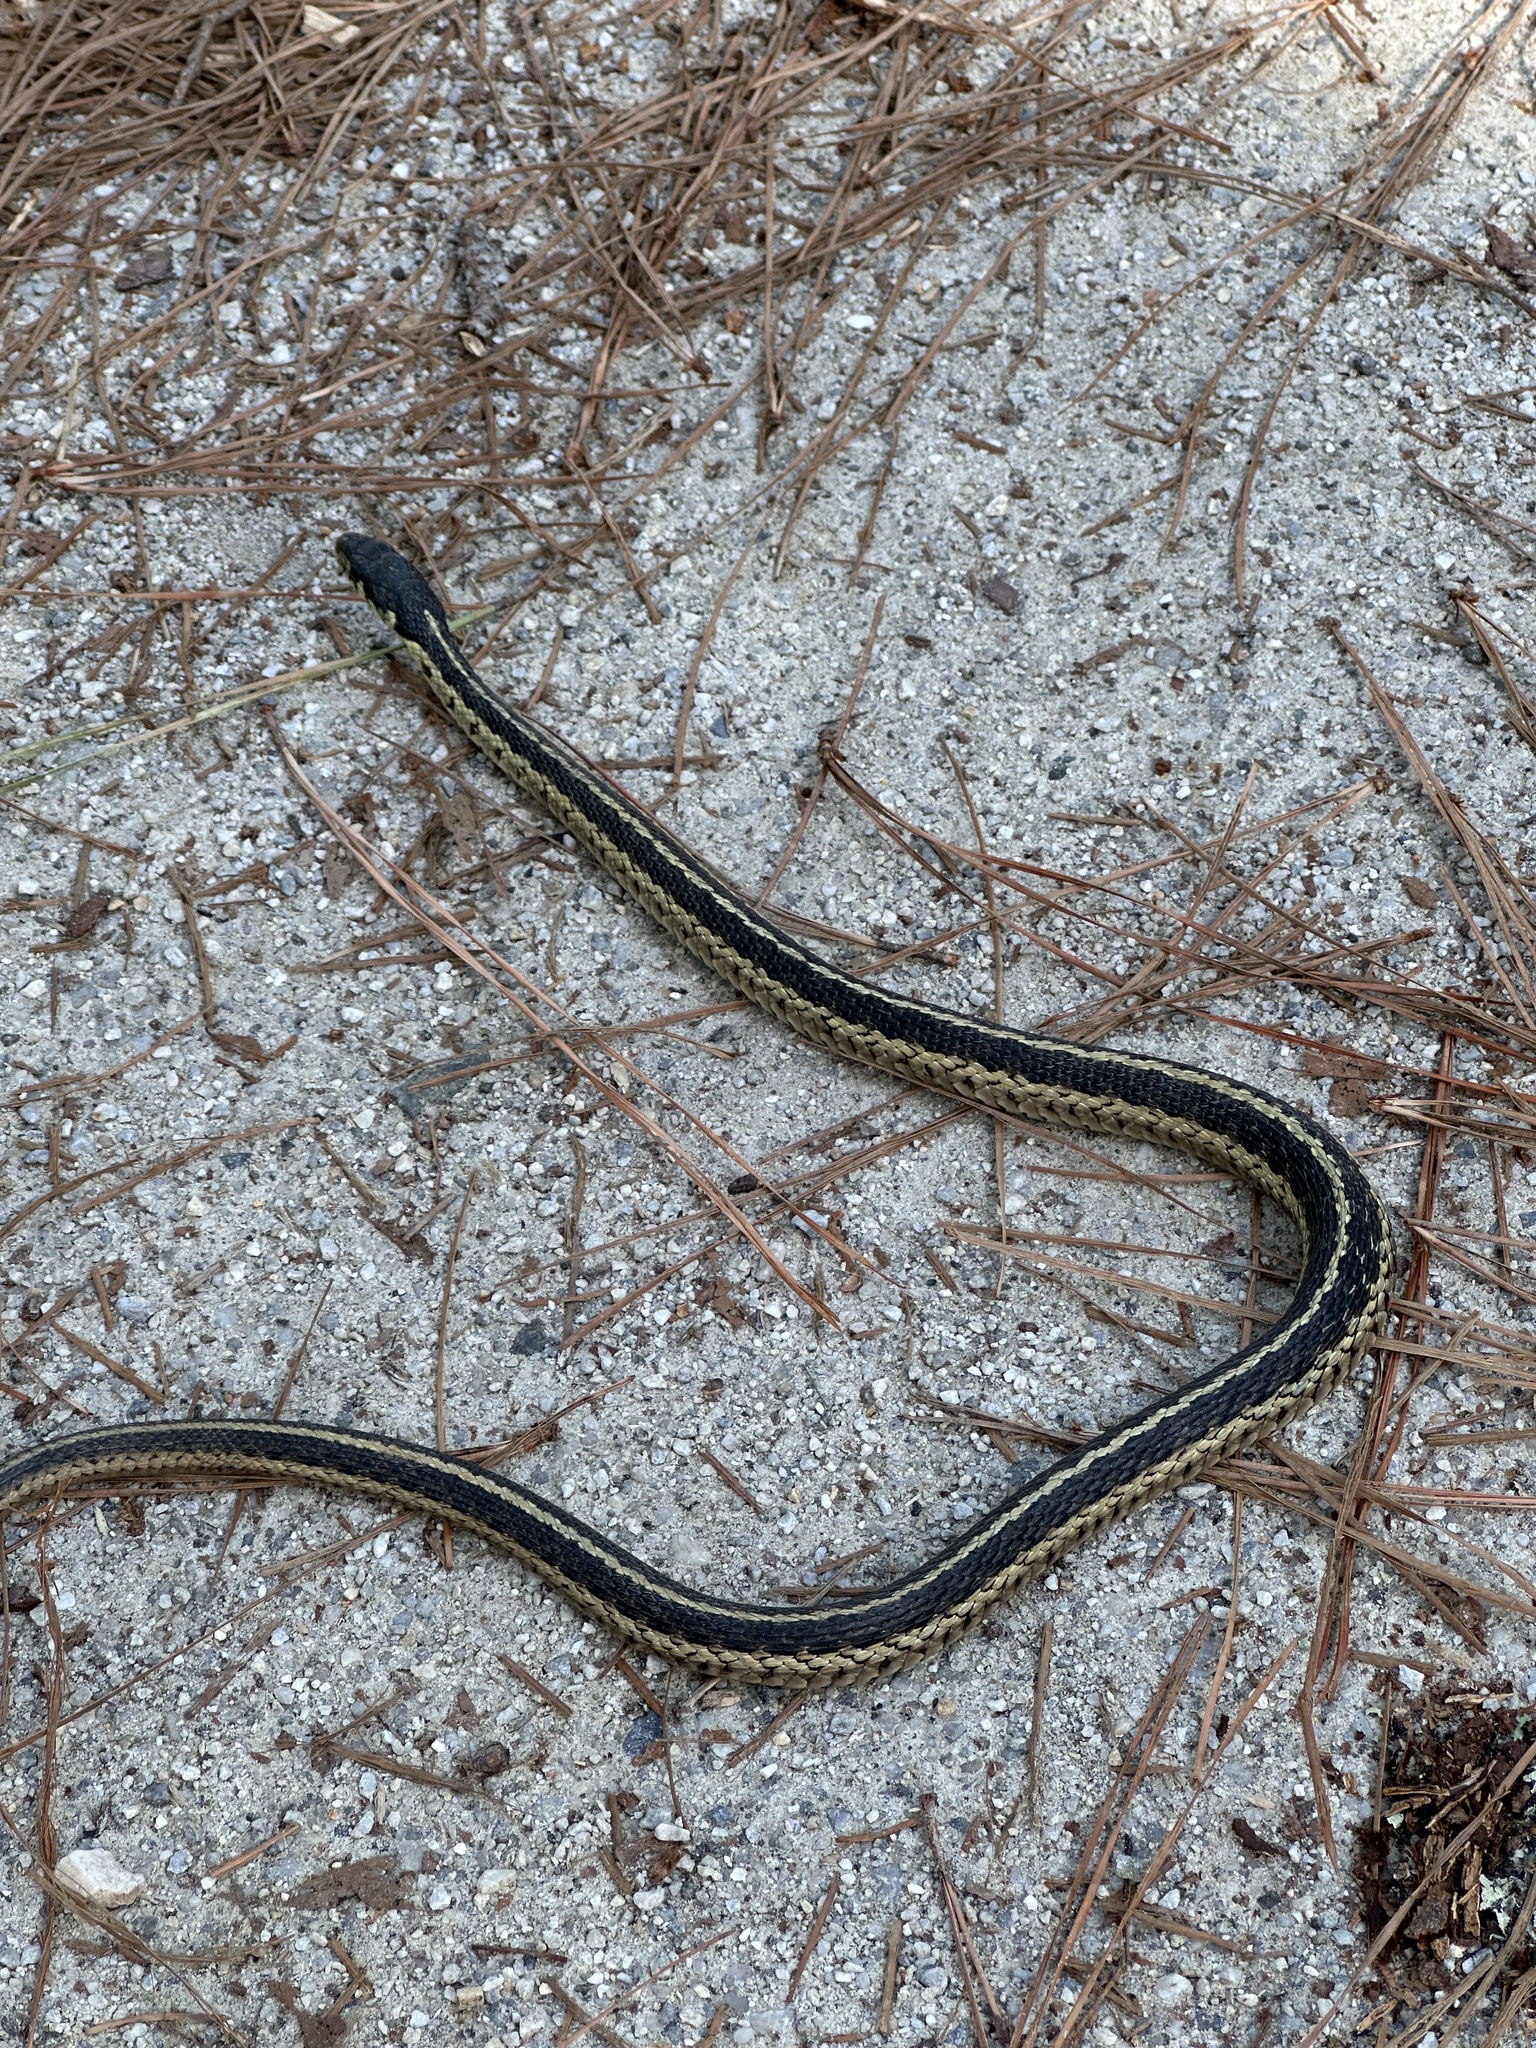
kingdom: Animalia
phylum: Chordata
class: Squamata
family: Colubridae
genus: Thamnophis
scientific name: Thamnophis sirtalis
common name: Common garter snake
